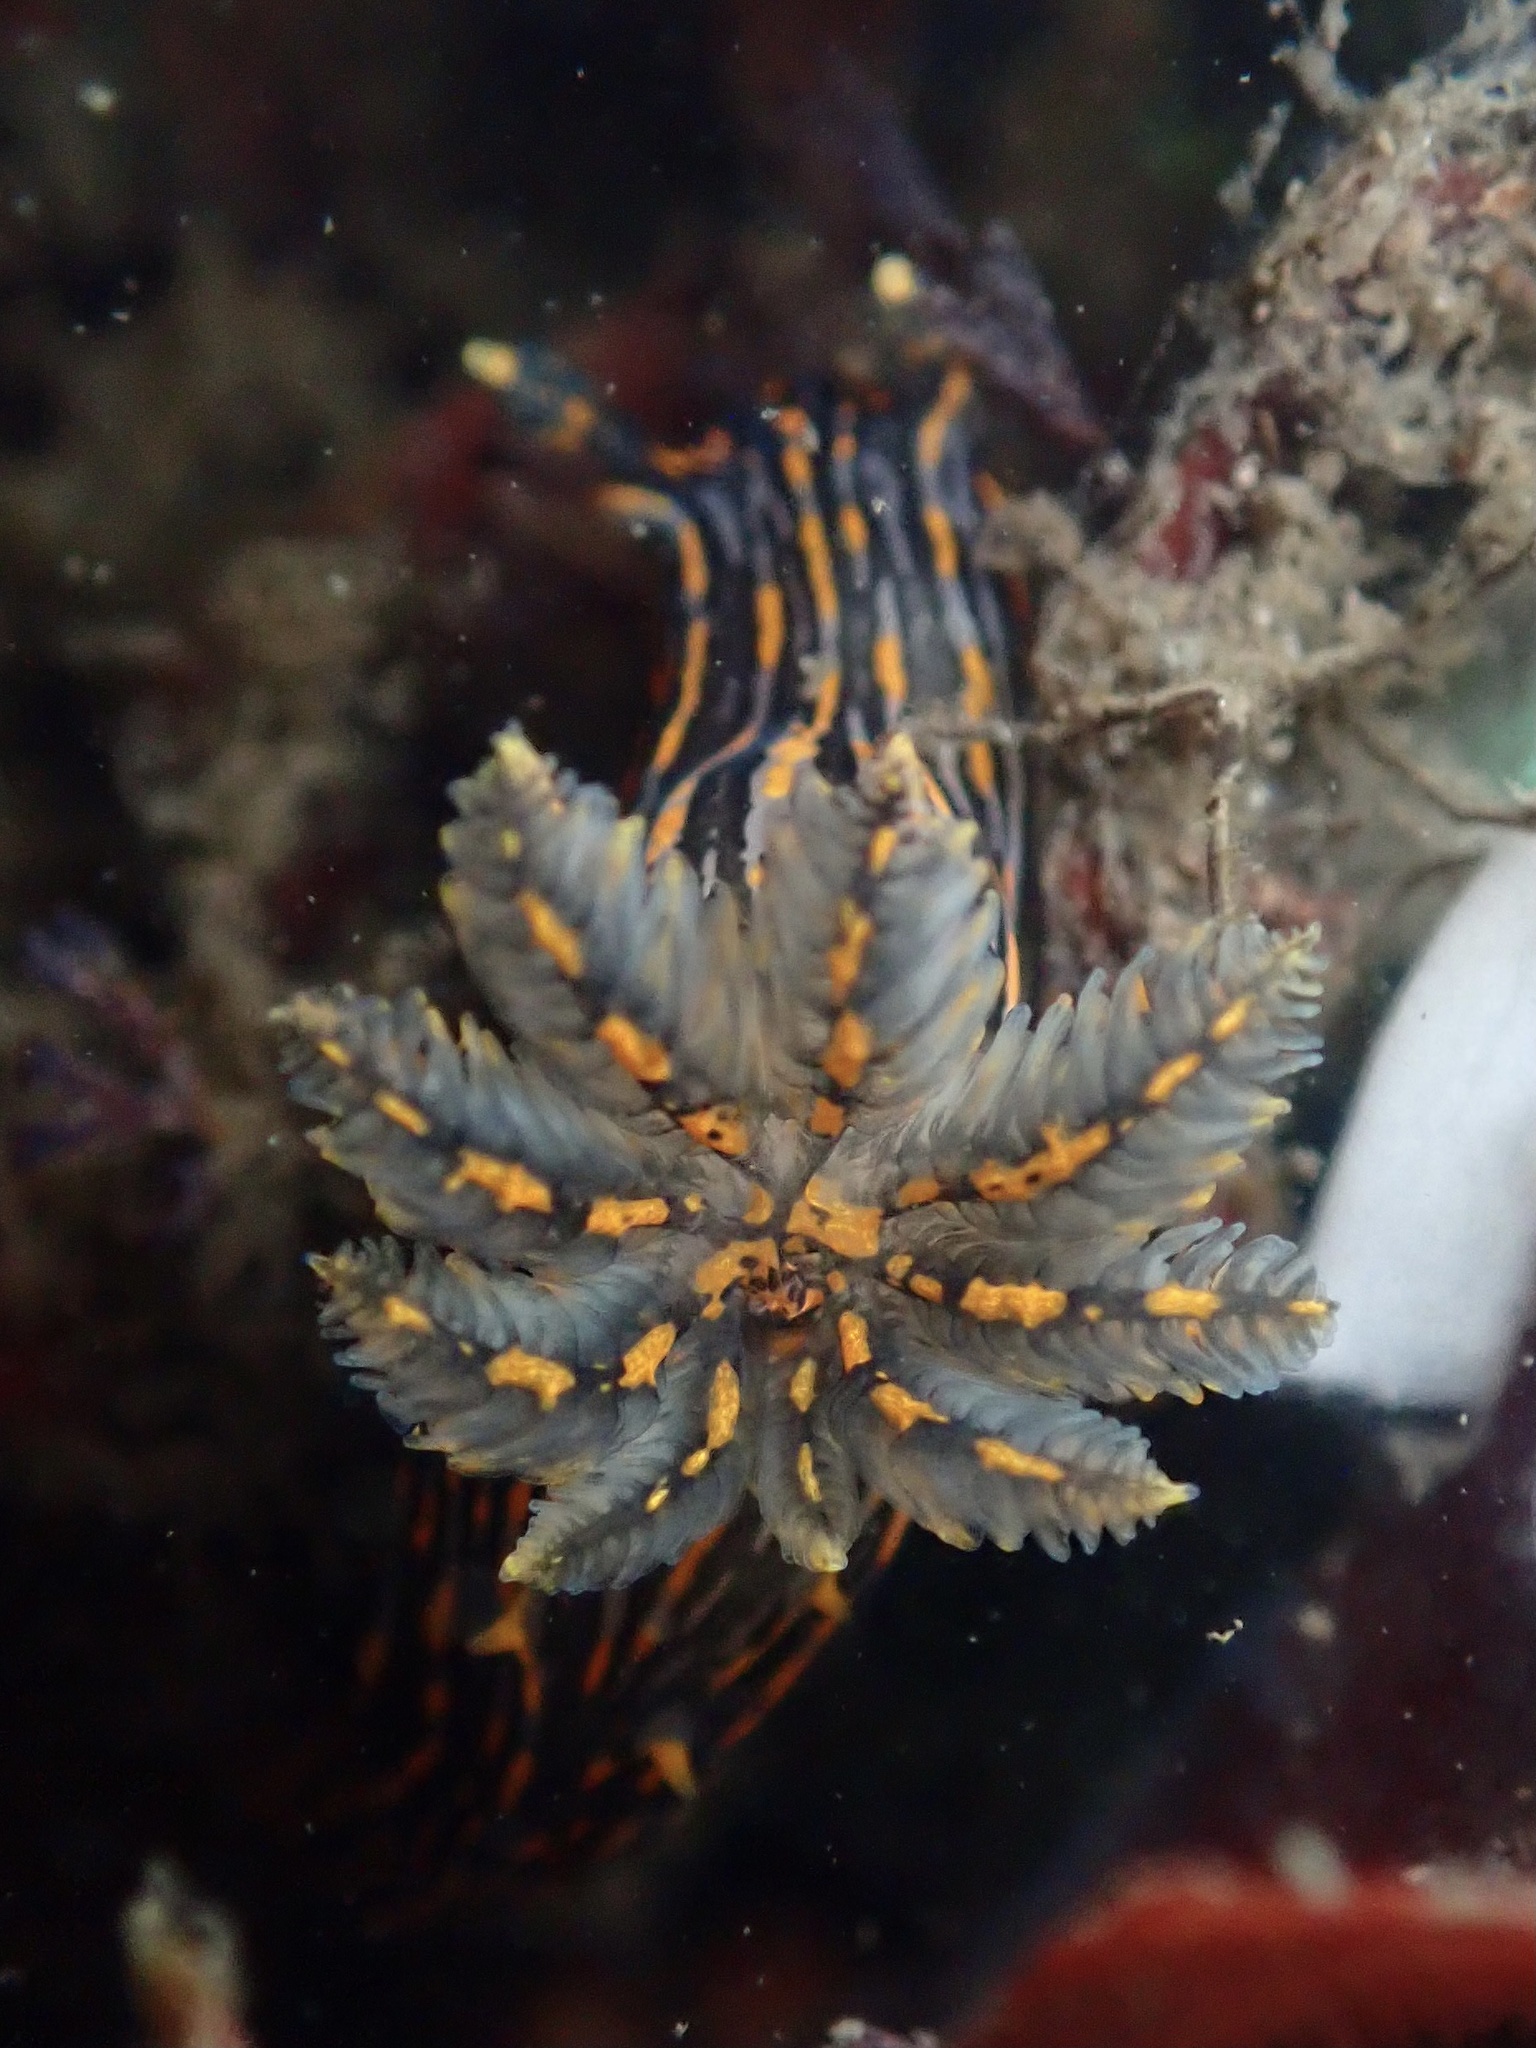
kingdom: Animalia
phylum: Mollusca
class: Gastropoda
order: Nudibranchia
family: Polyceridae
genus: Polycera
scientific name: Polycera atra
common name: Orange-spike polycera
